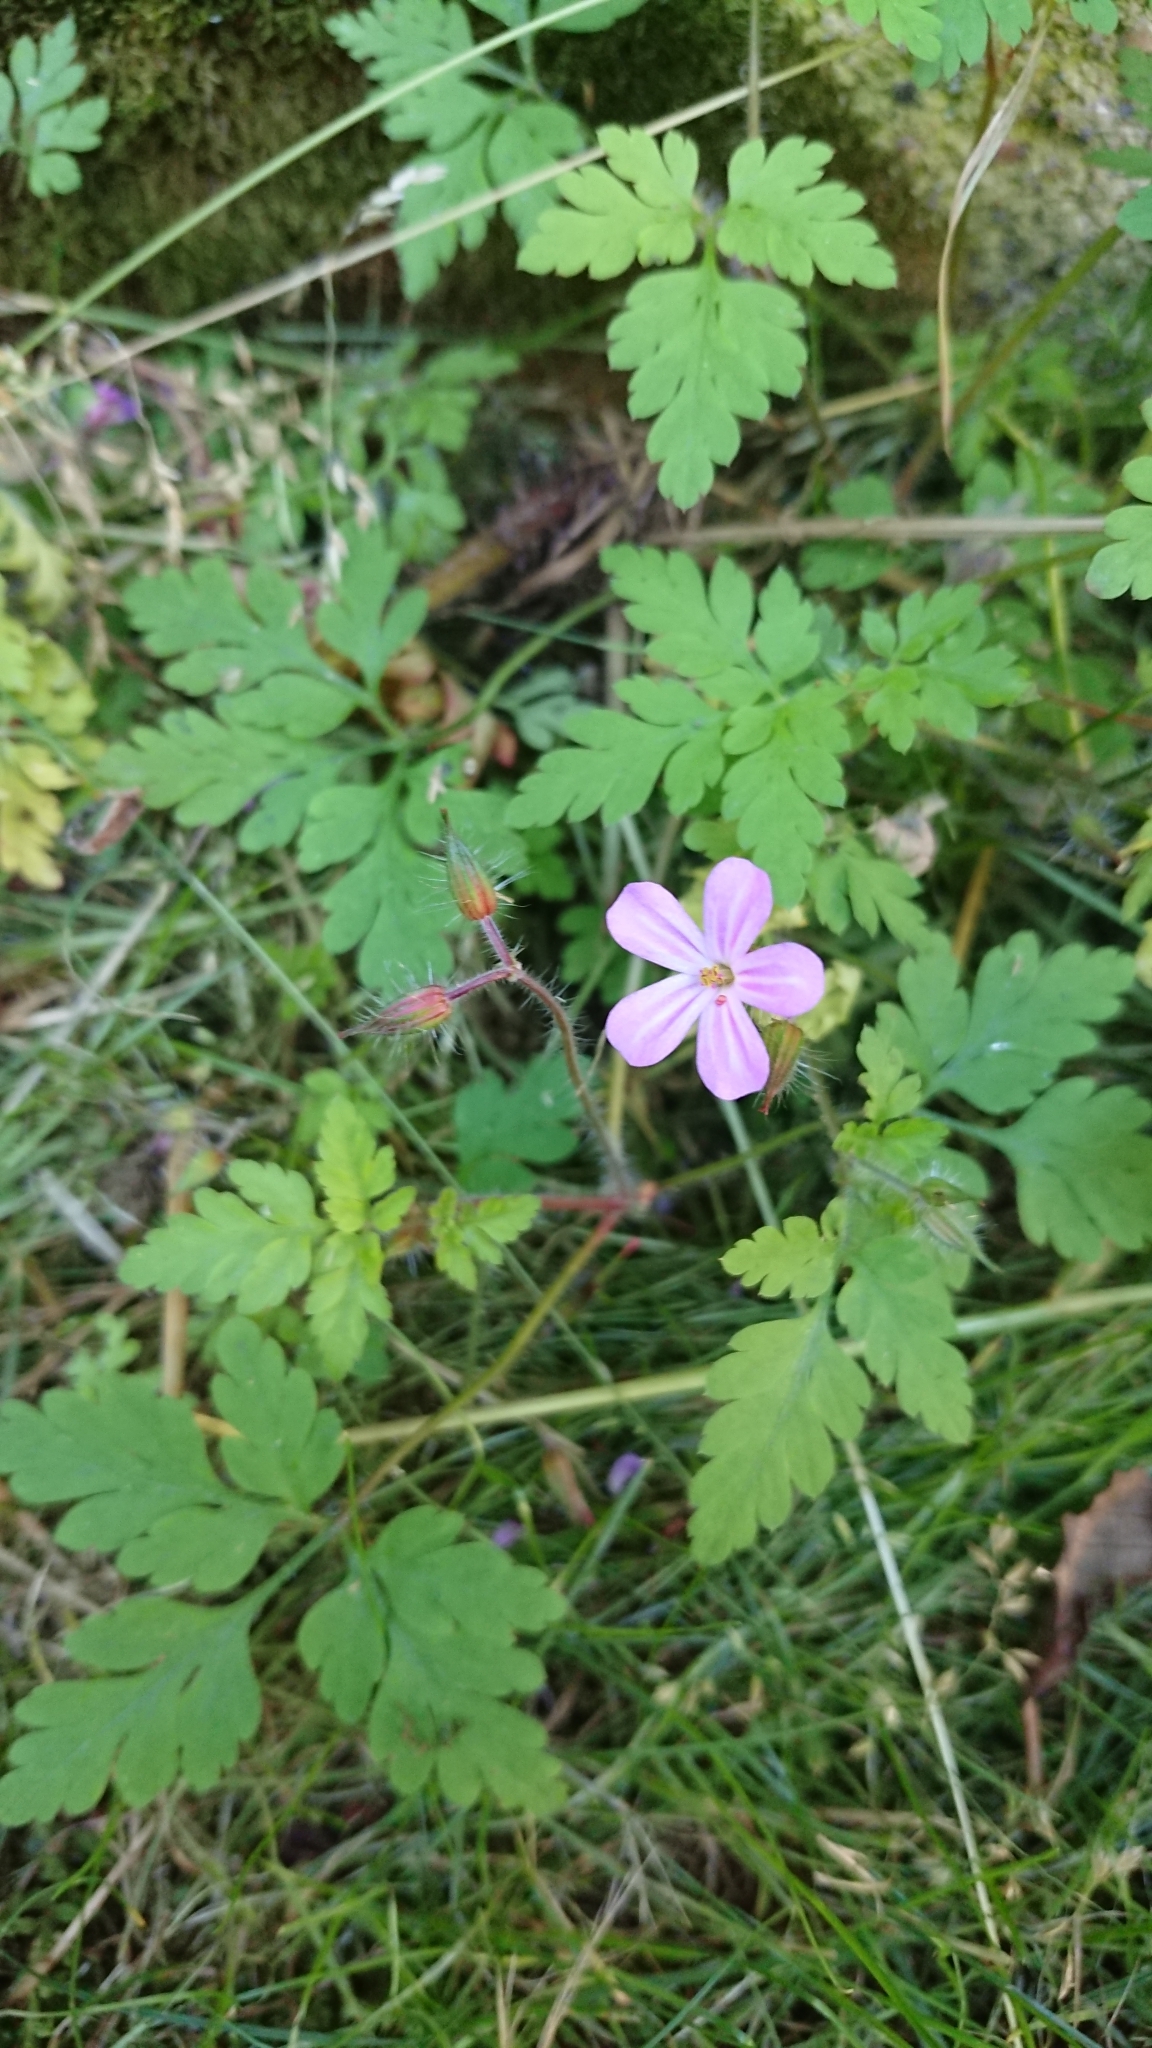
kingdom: Plantae
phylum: Tracheophyta
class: Magnoliopsida
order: Geraniales
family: Geraniaceae
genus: Geranium
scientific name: Geranium robertianum
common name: Herb-robert
